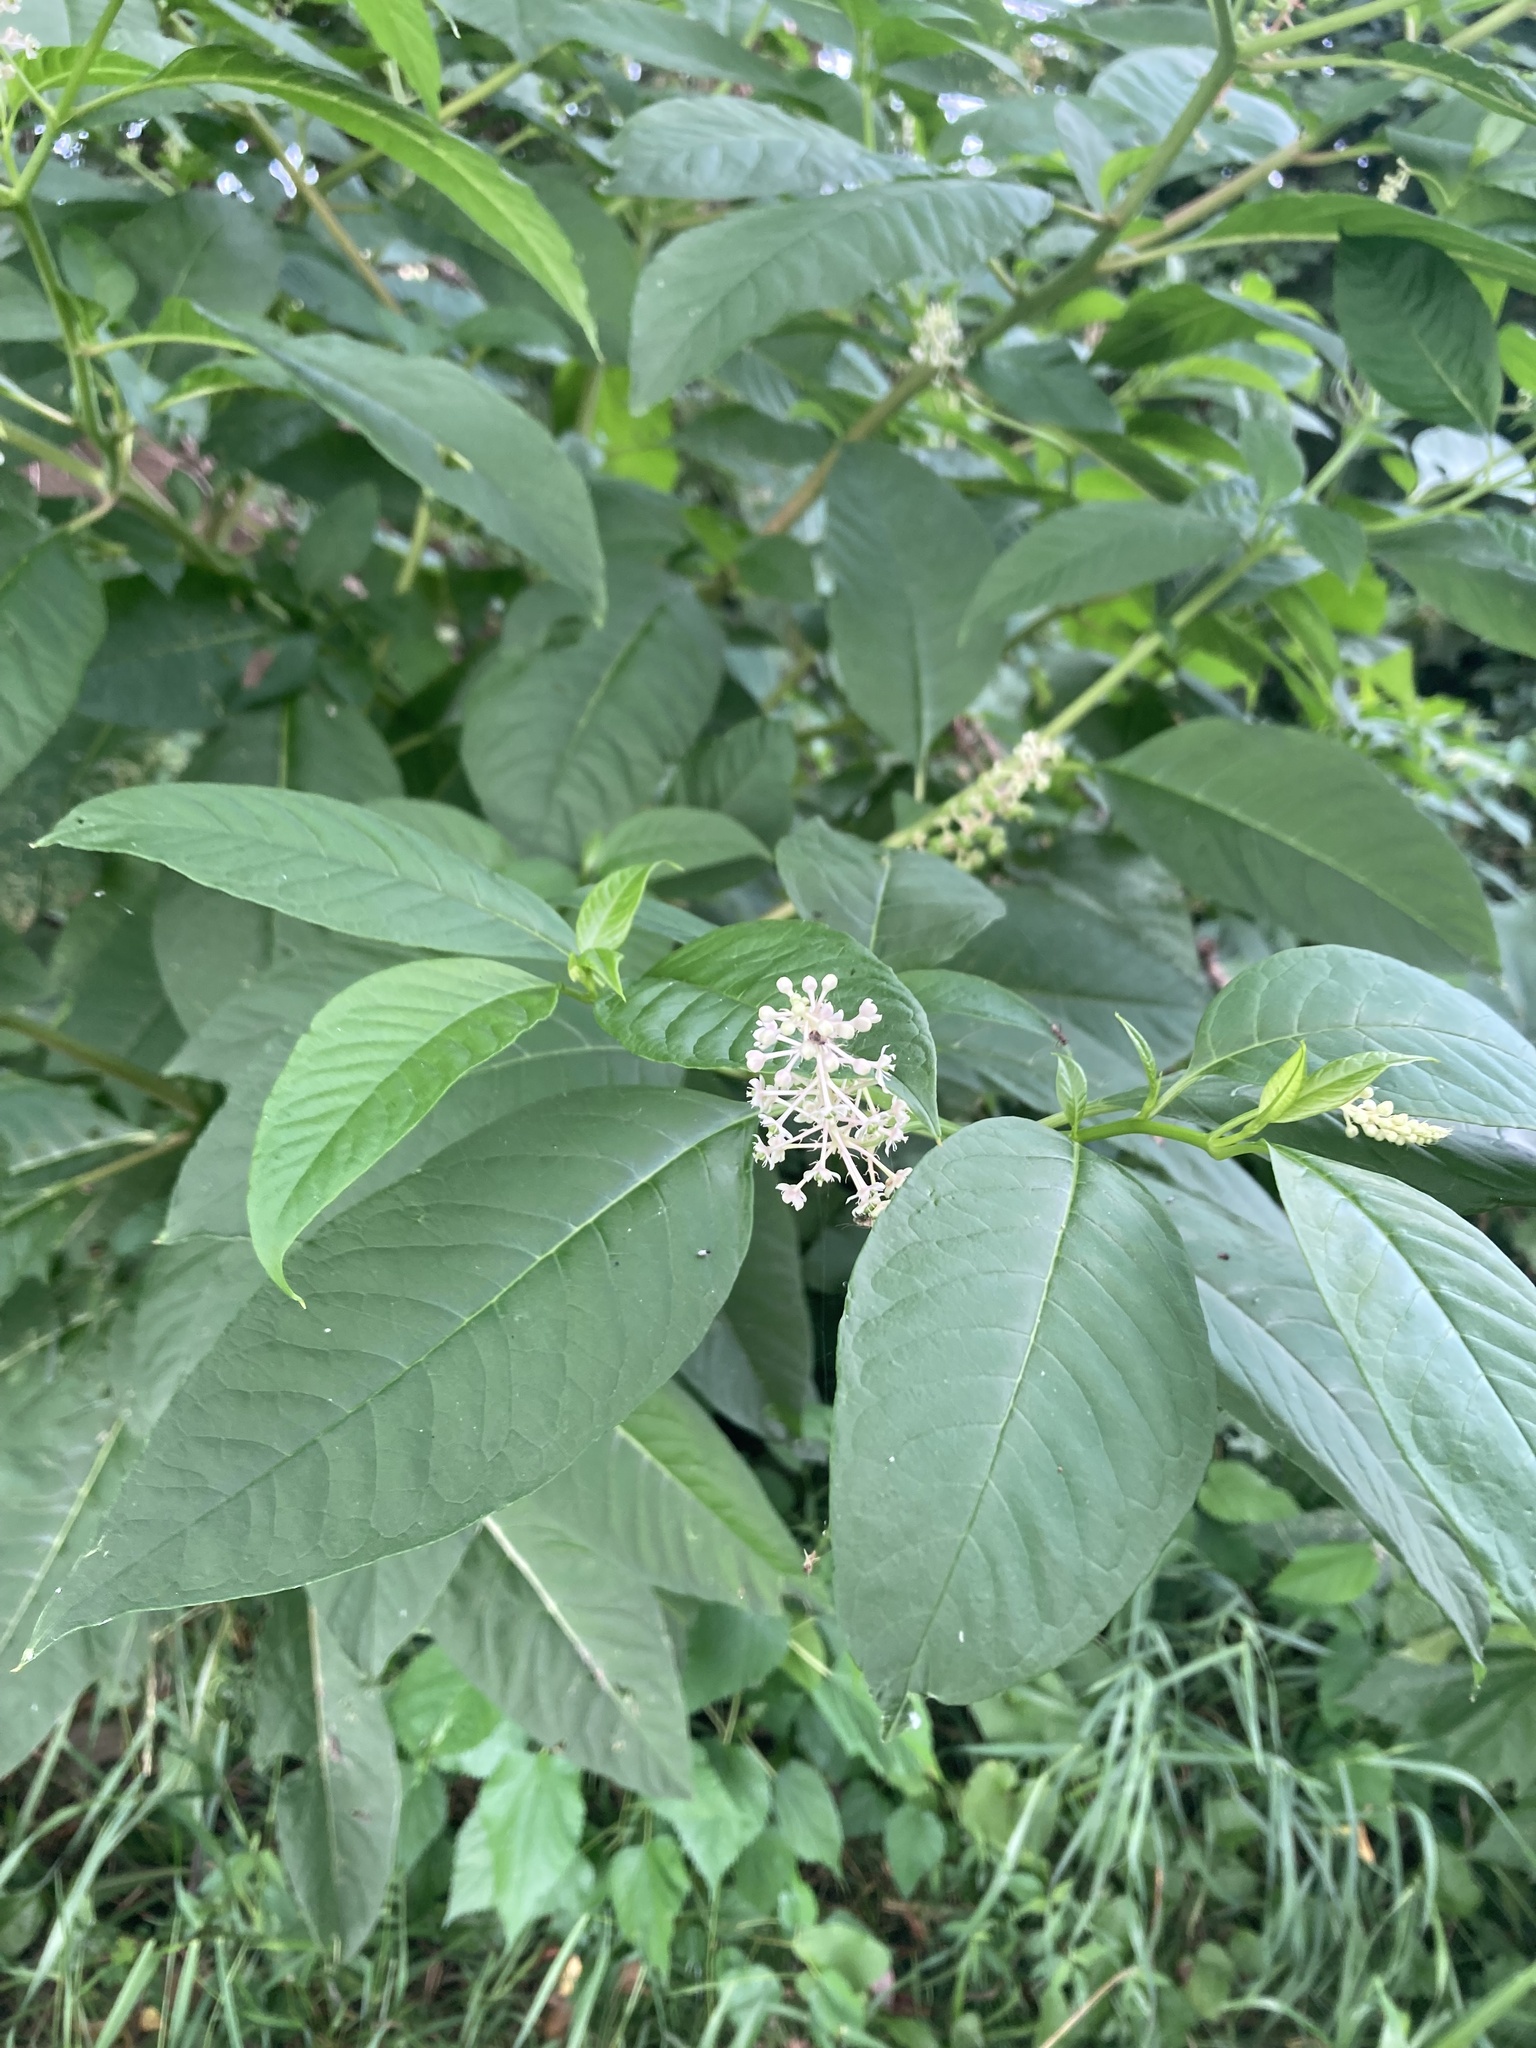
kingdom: Plantae
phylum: Tracheophyta
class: Magnoliopsida
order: Caryophyllales
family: Phytolaccaceae
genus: Phytolacca
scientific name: Phytolacca americana
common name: American pokeweed
